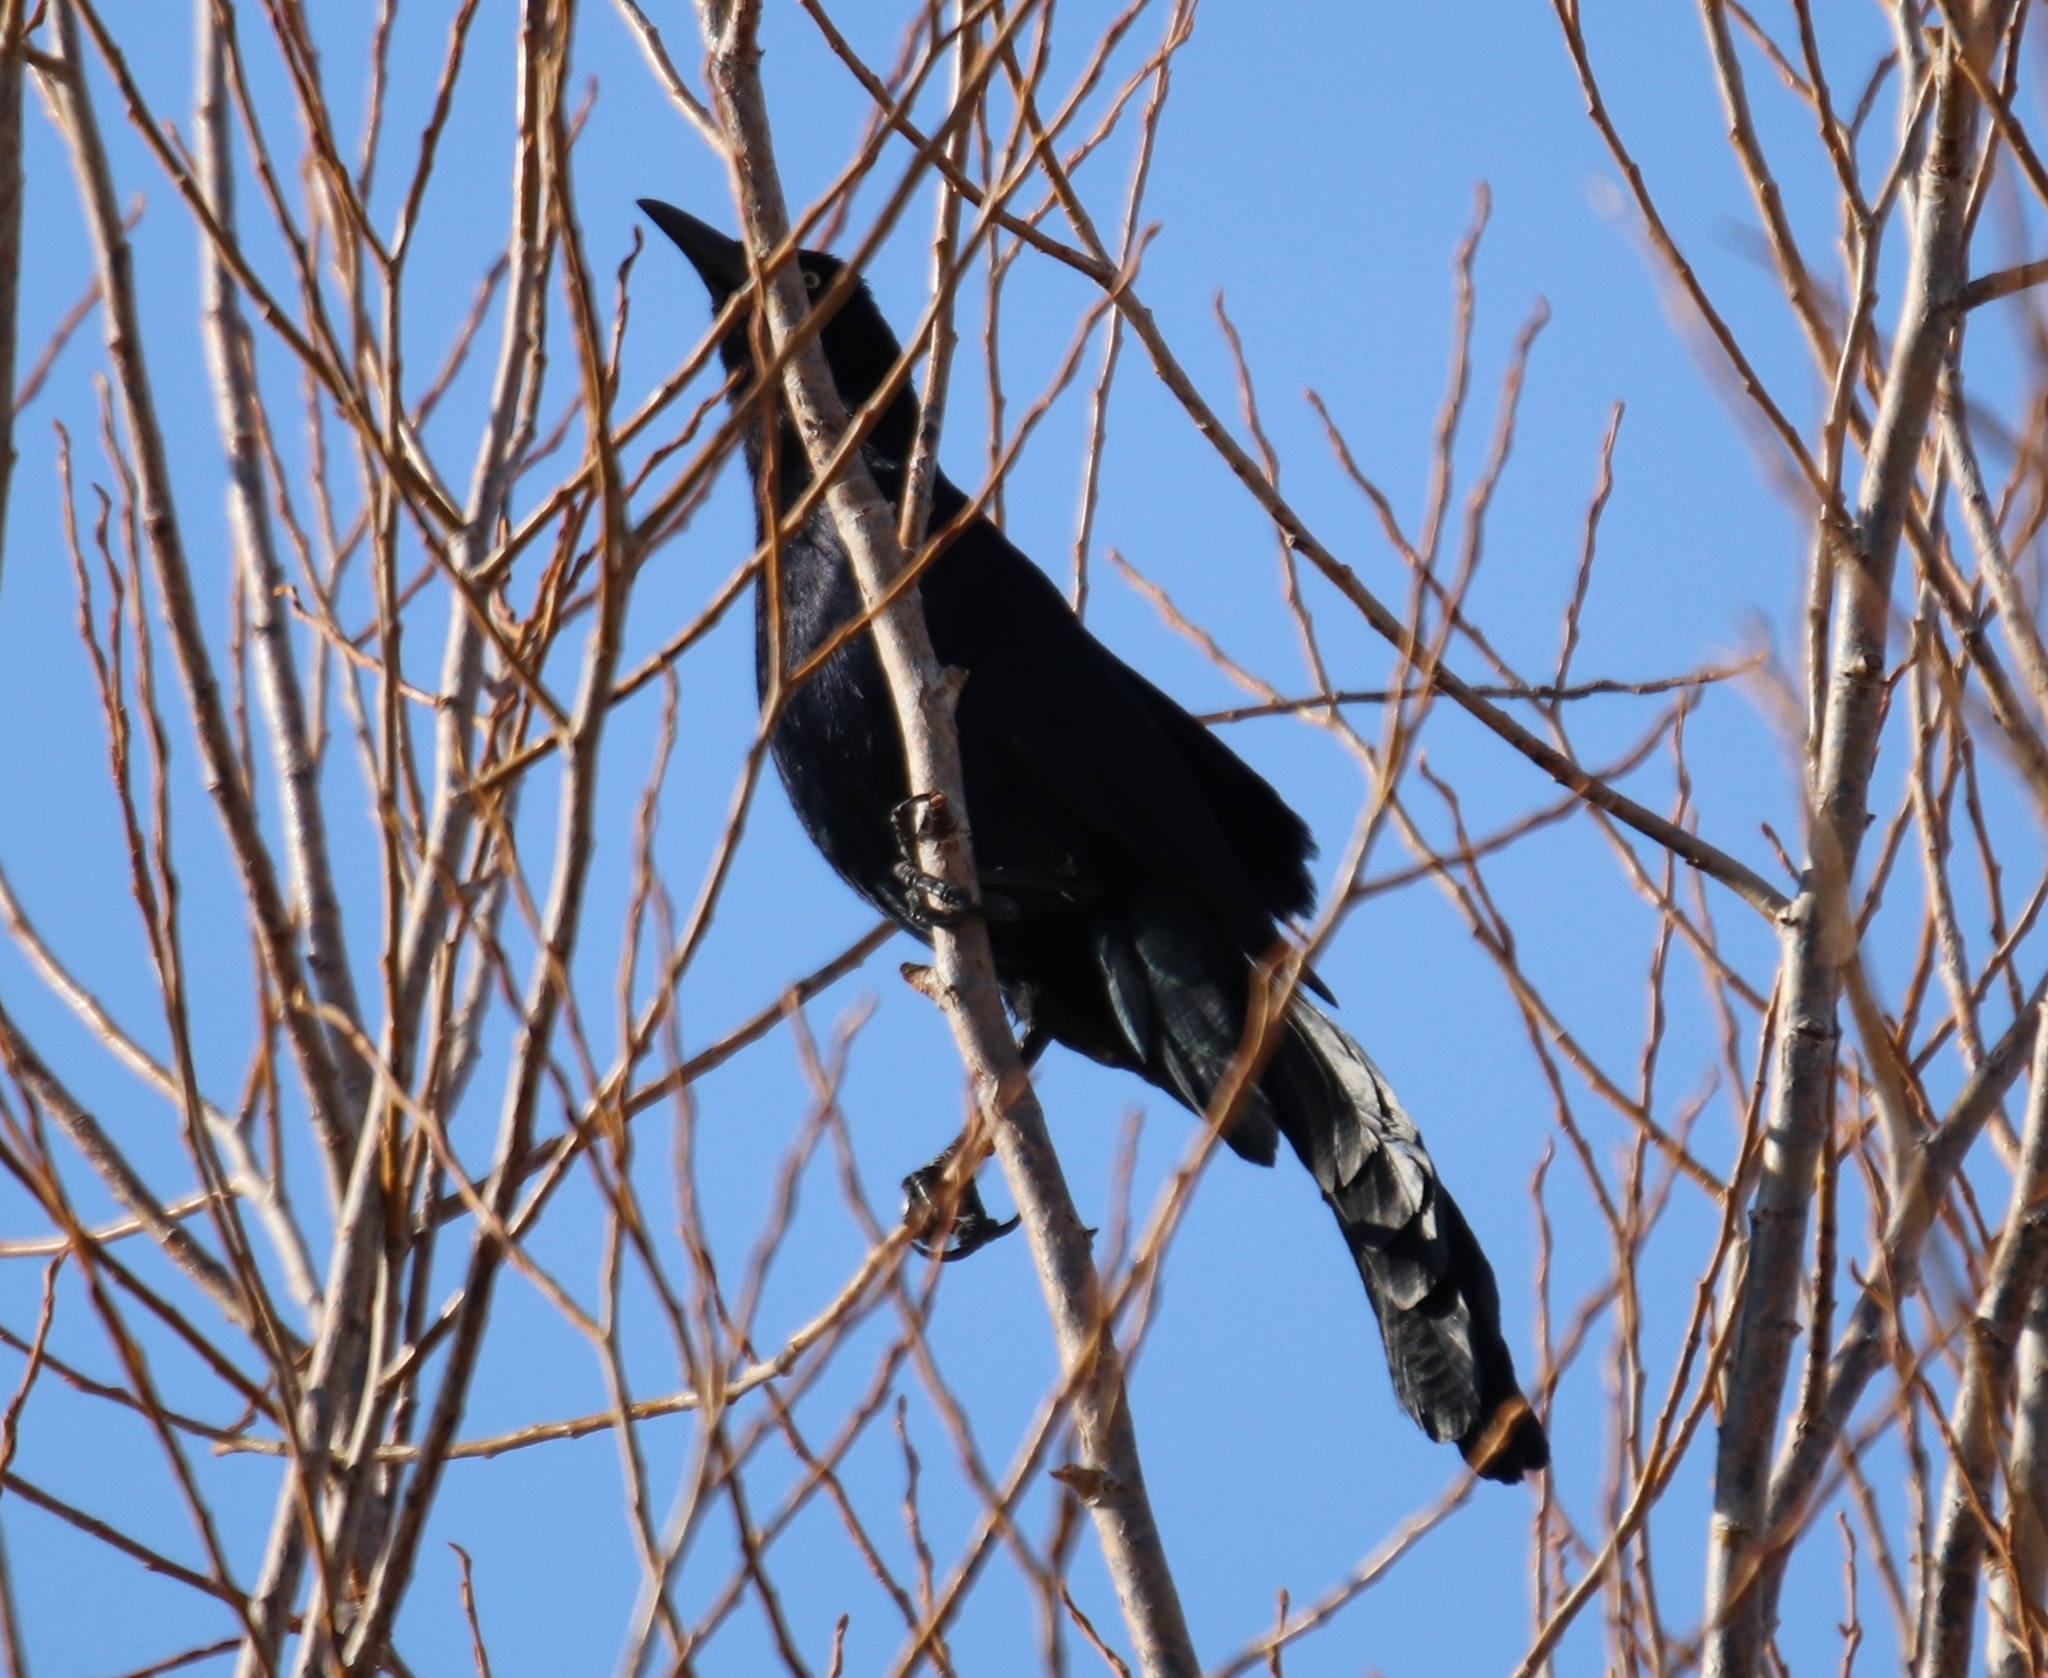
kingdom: Animalia
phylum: Chordata
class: Aves
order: Passeriformes
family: Icteridae
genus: Quiscalus
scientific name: Quiscalus mexicanus
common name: Great-tailed grackle
